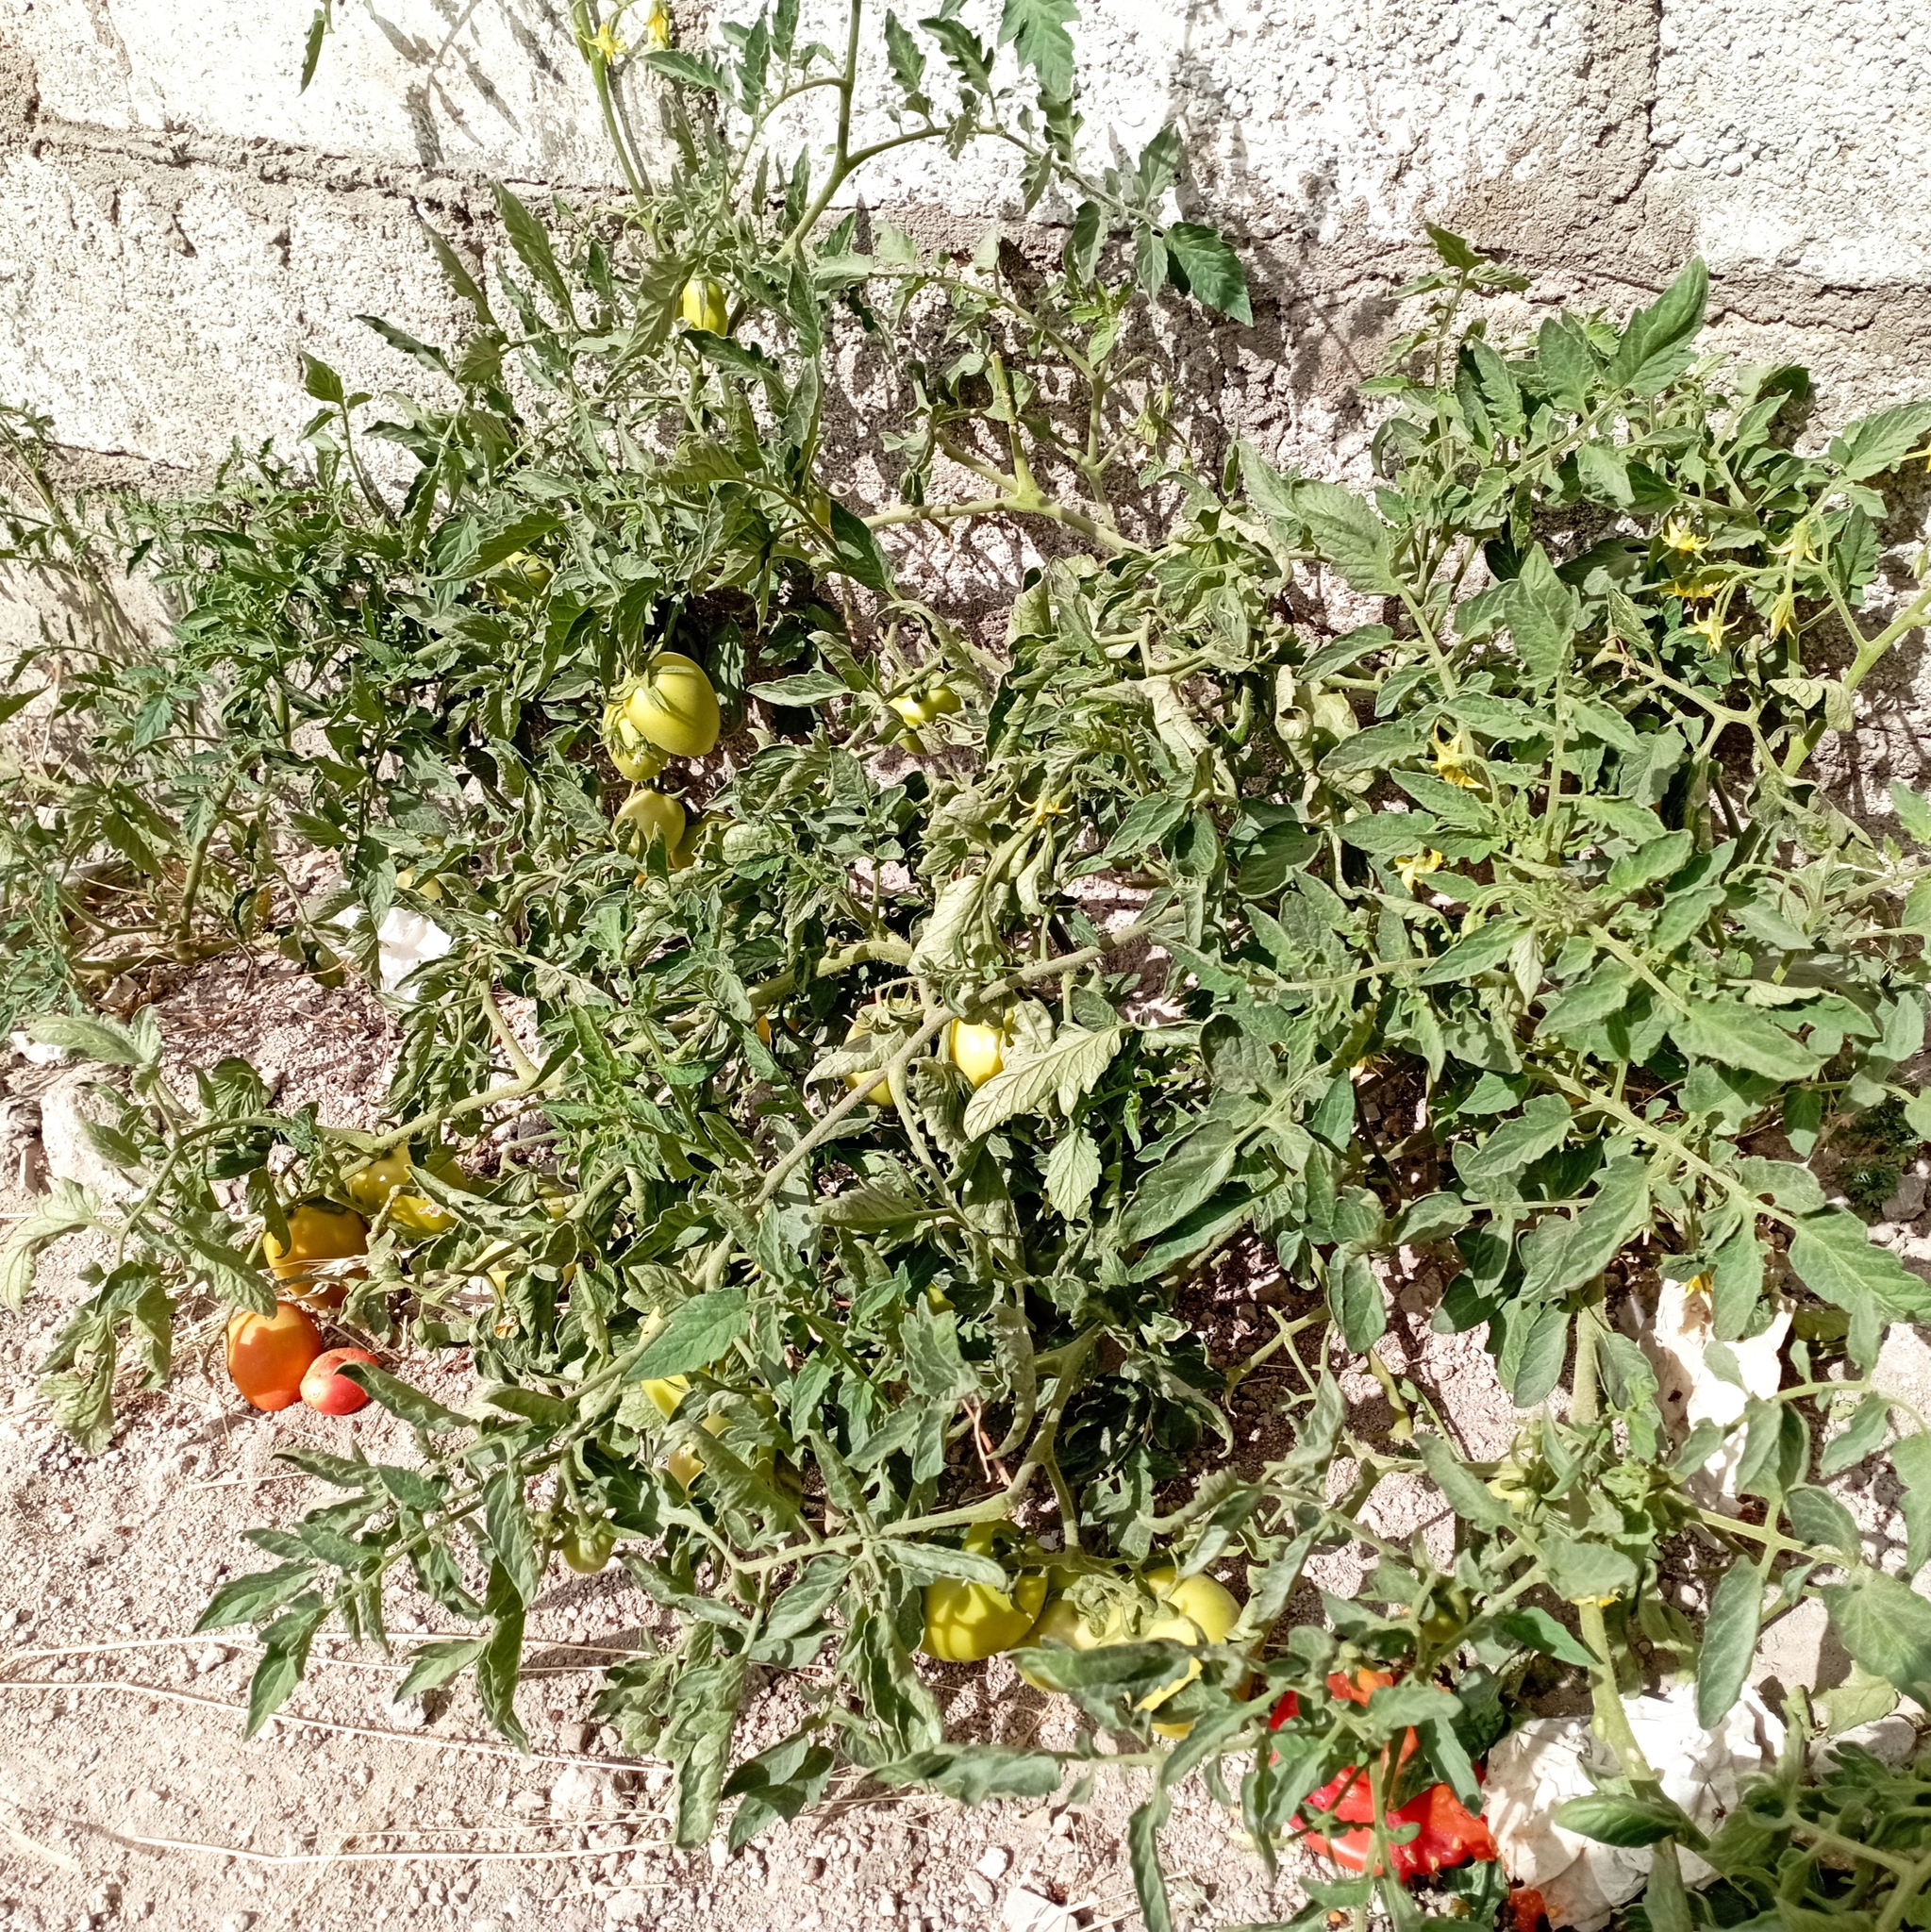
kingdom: Plantae
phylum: Tracheophyta
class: Magnoliopsida
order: Solanales
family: Solanaceae
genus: Solanum
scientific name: Solanum lycopersicum
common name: Garden tomato
